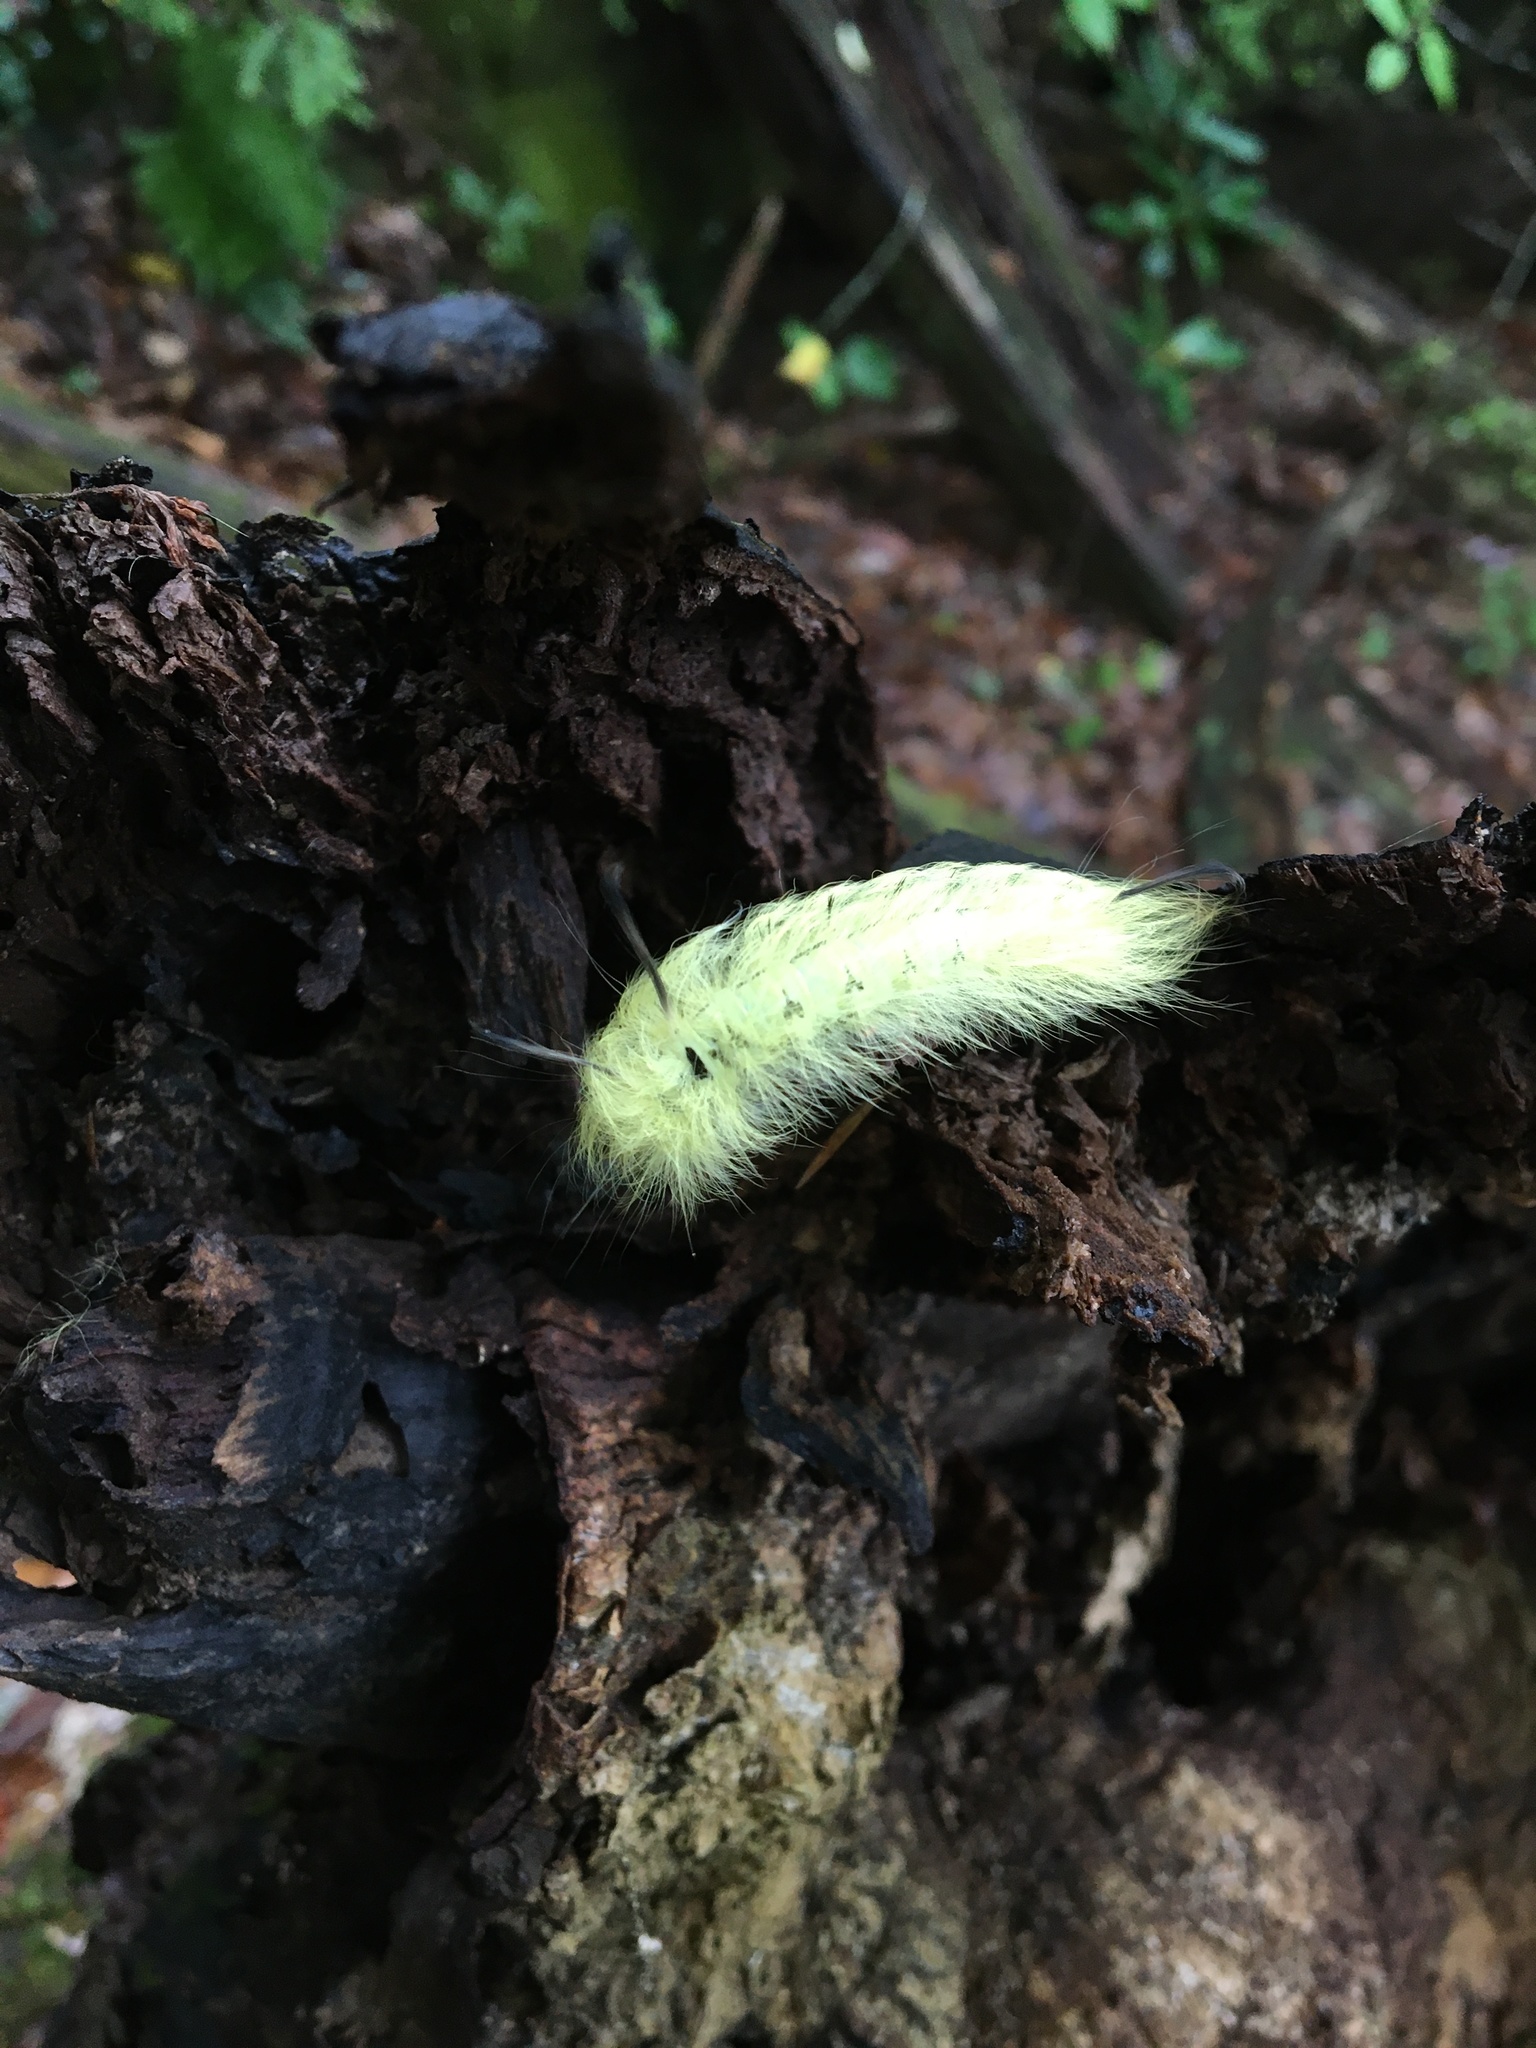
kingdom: Animalia
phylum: Arthropoda
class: Insecta
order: Lepidoptera
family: Apatelodidae
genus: Hygrochroa
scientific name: Hygrochroa Apatelodes torrefacta
